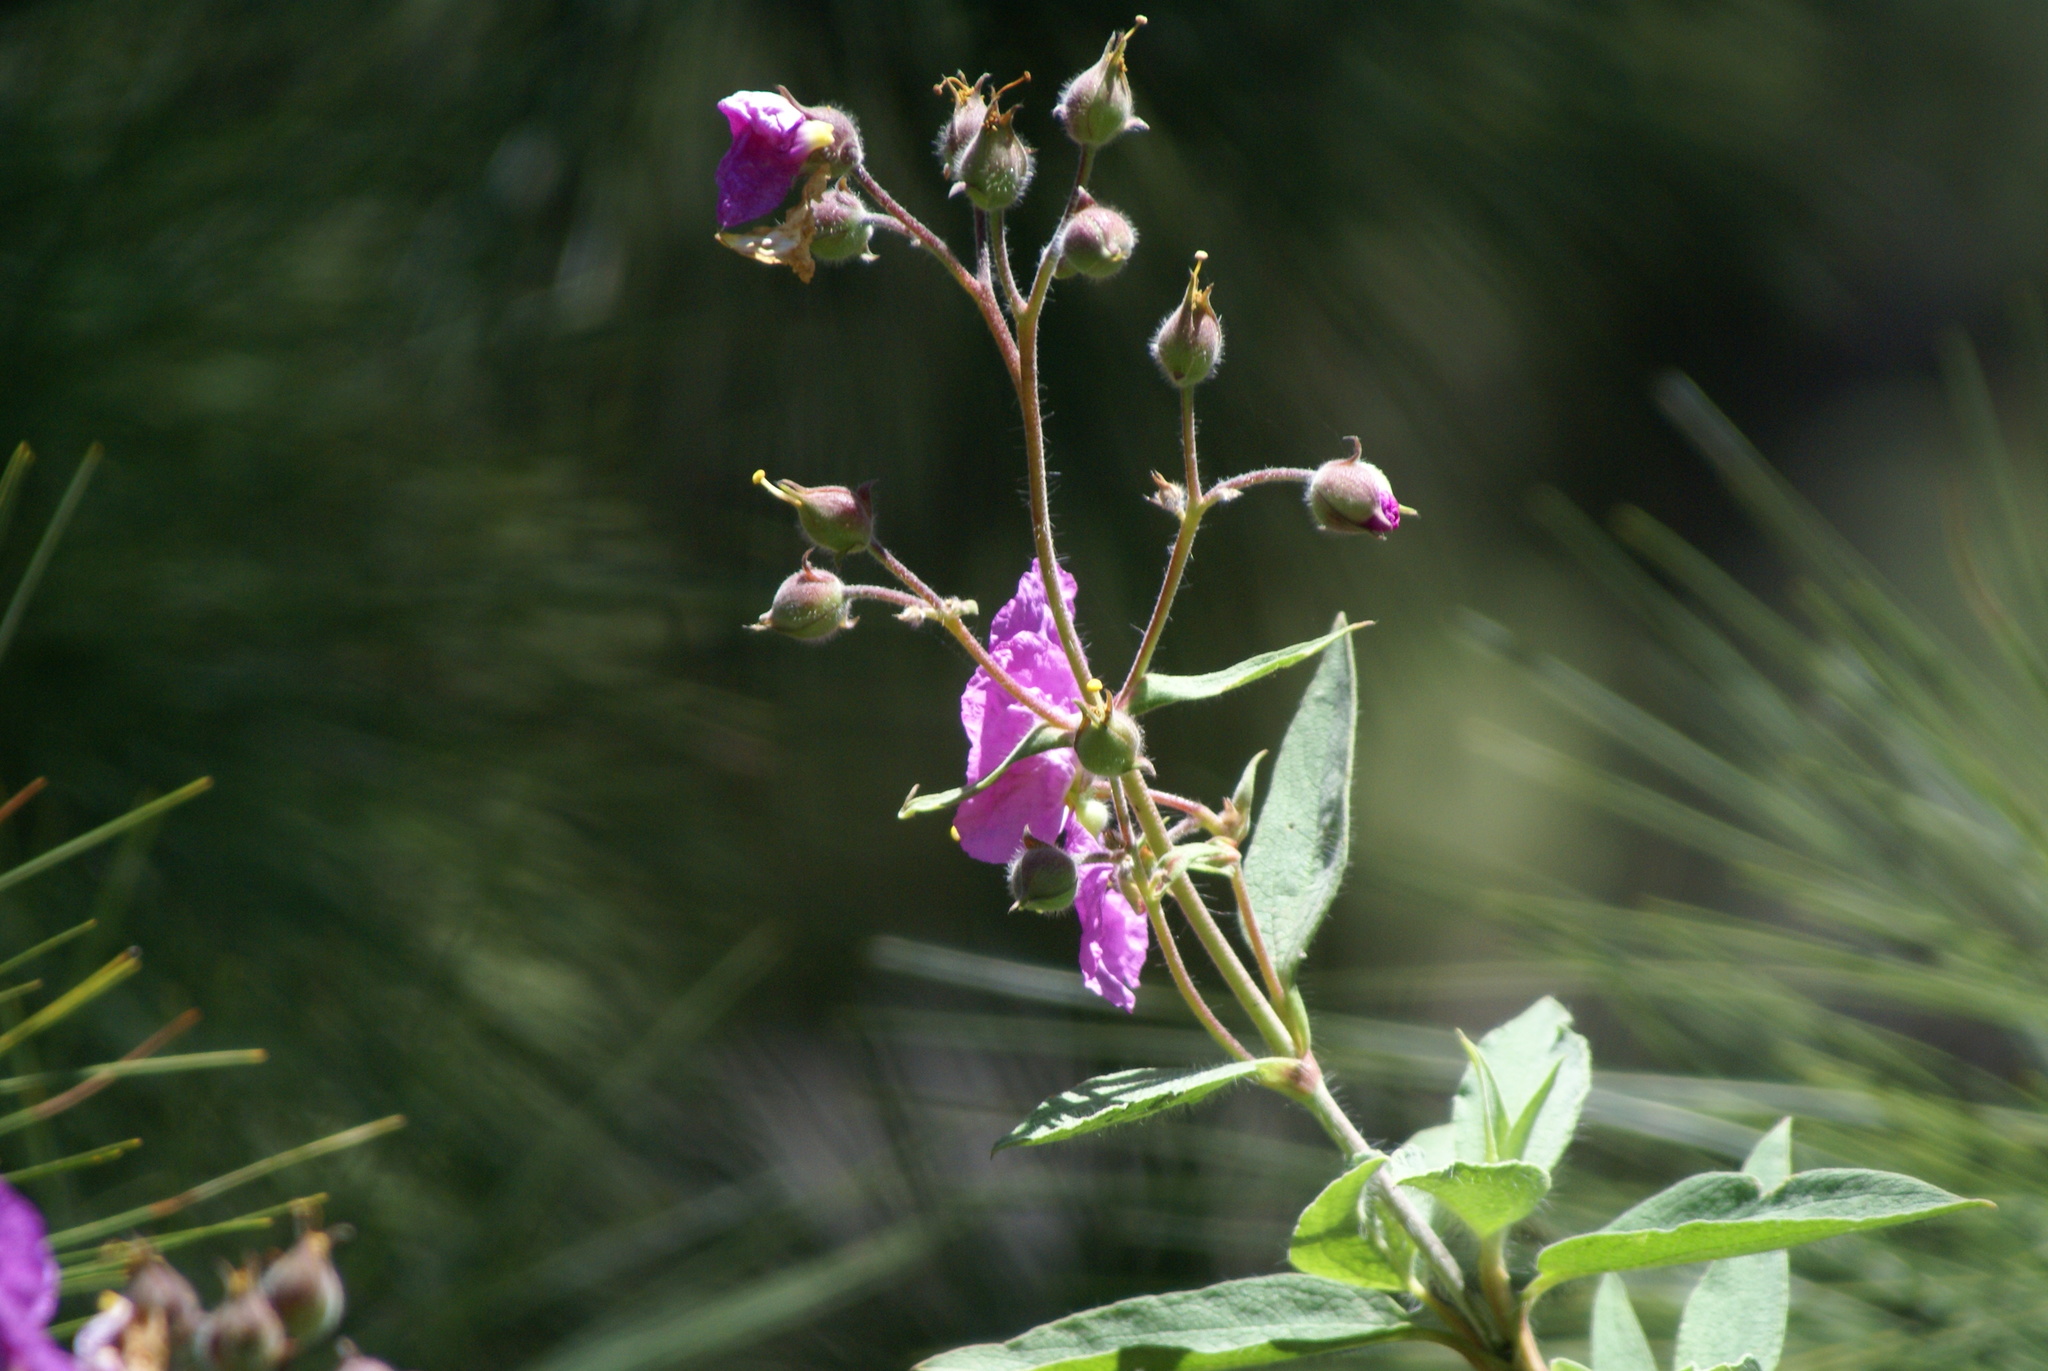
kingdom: Plantae
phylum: Tracheophyta
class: Magnoliopsida
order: Malvales
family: Cistaceae
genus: Cistus
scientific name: Cistus symphytifolius
